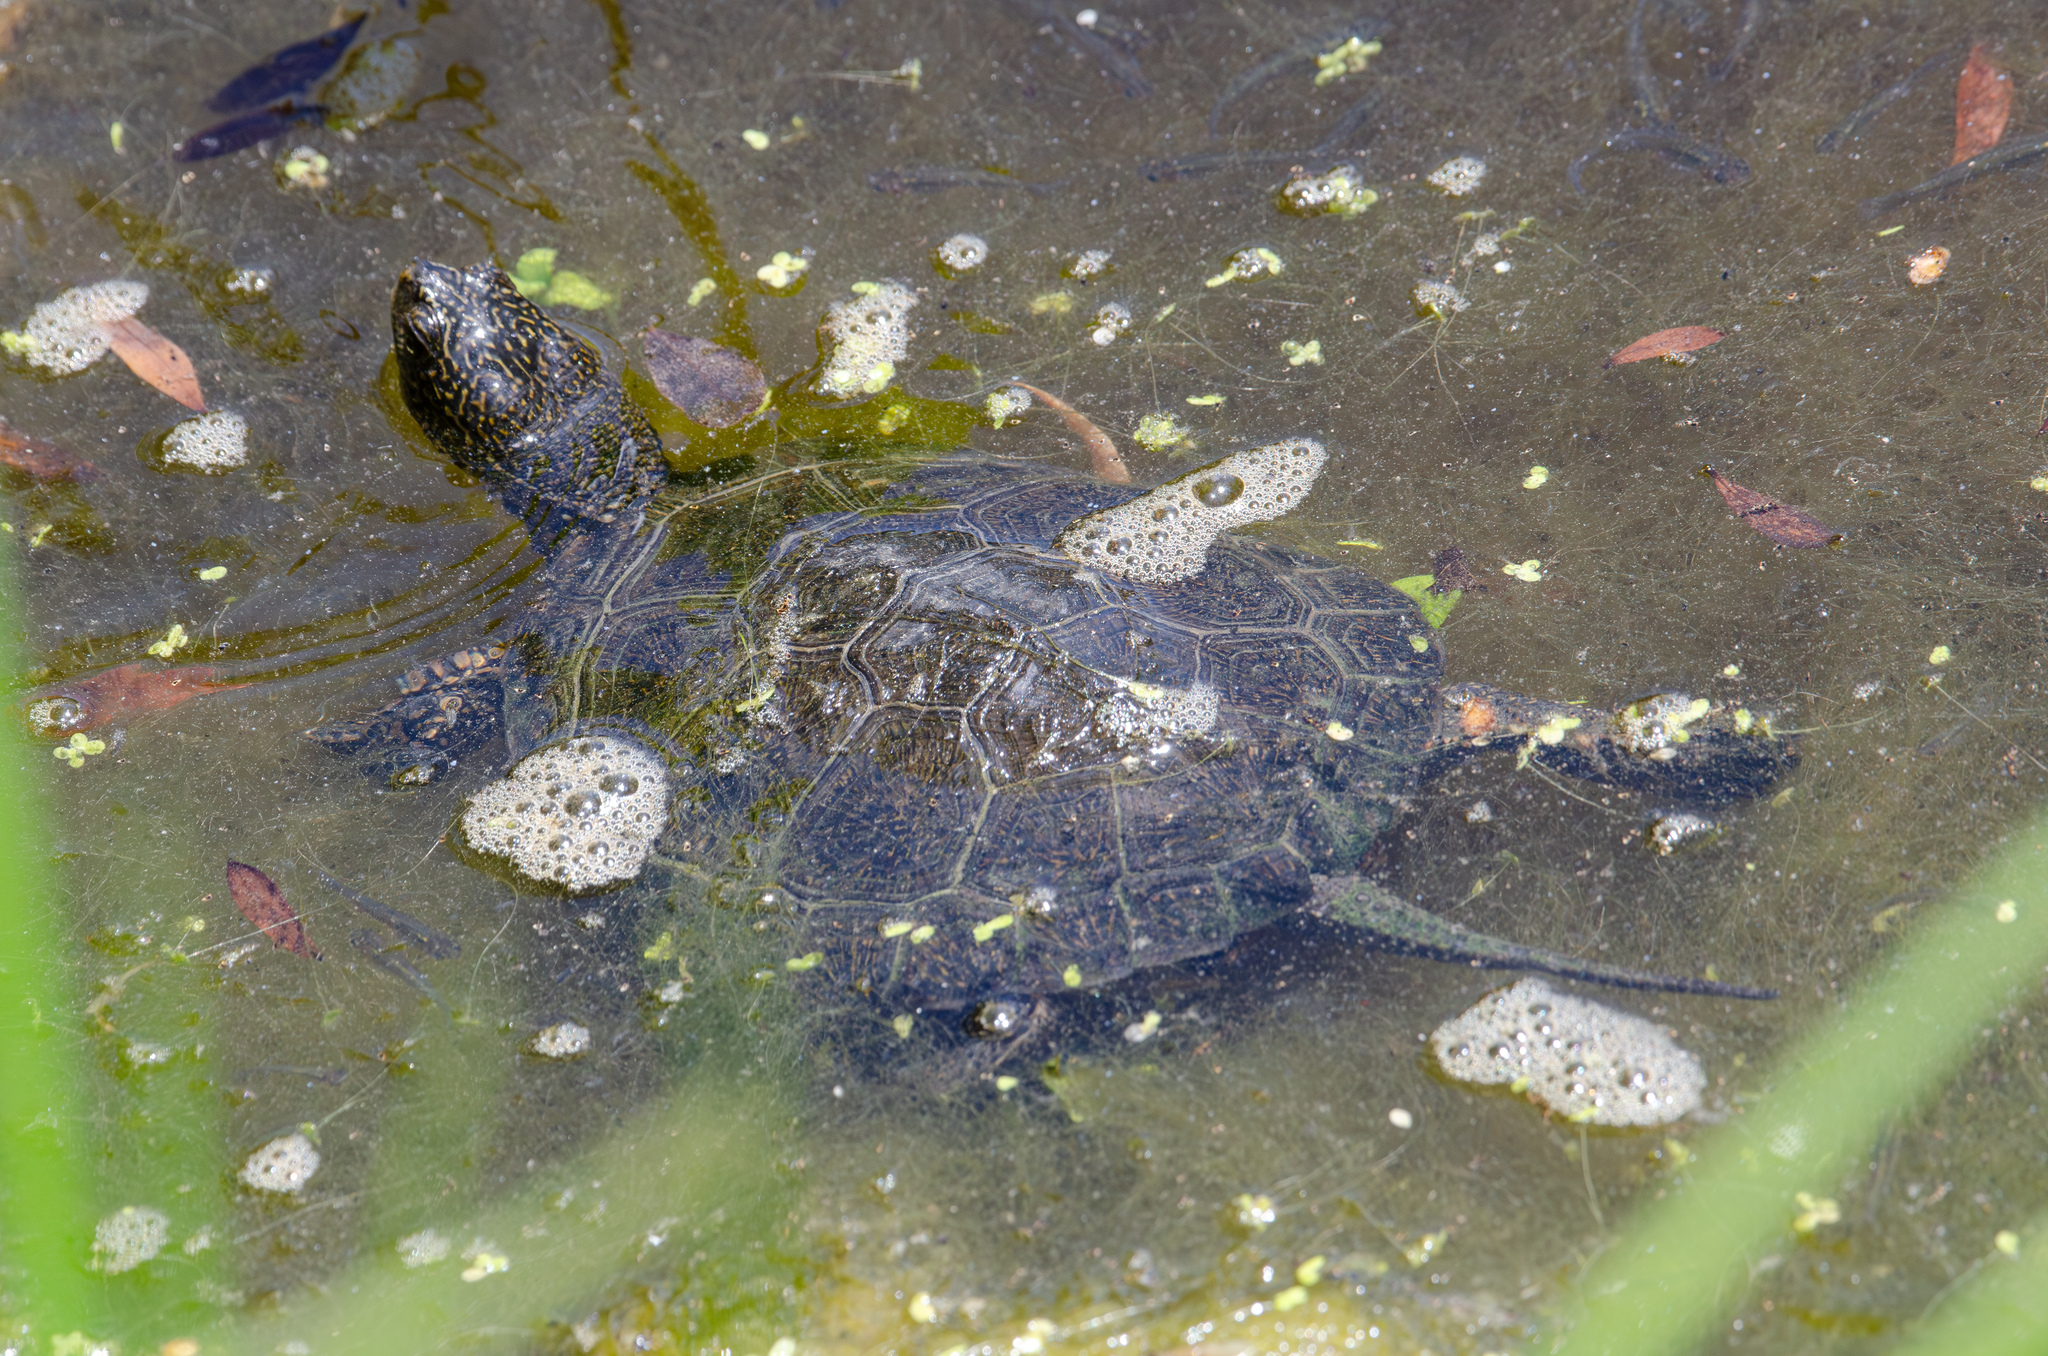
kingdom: Animalia
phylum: Chordata
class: Testudines
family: Emydidae
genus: Actinemys
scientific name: Actinemys marmorata
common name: Western pond turtle
